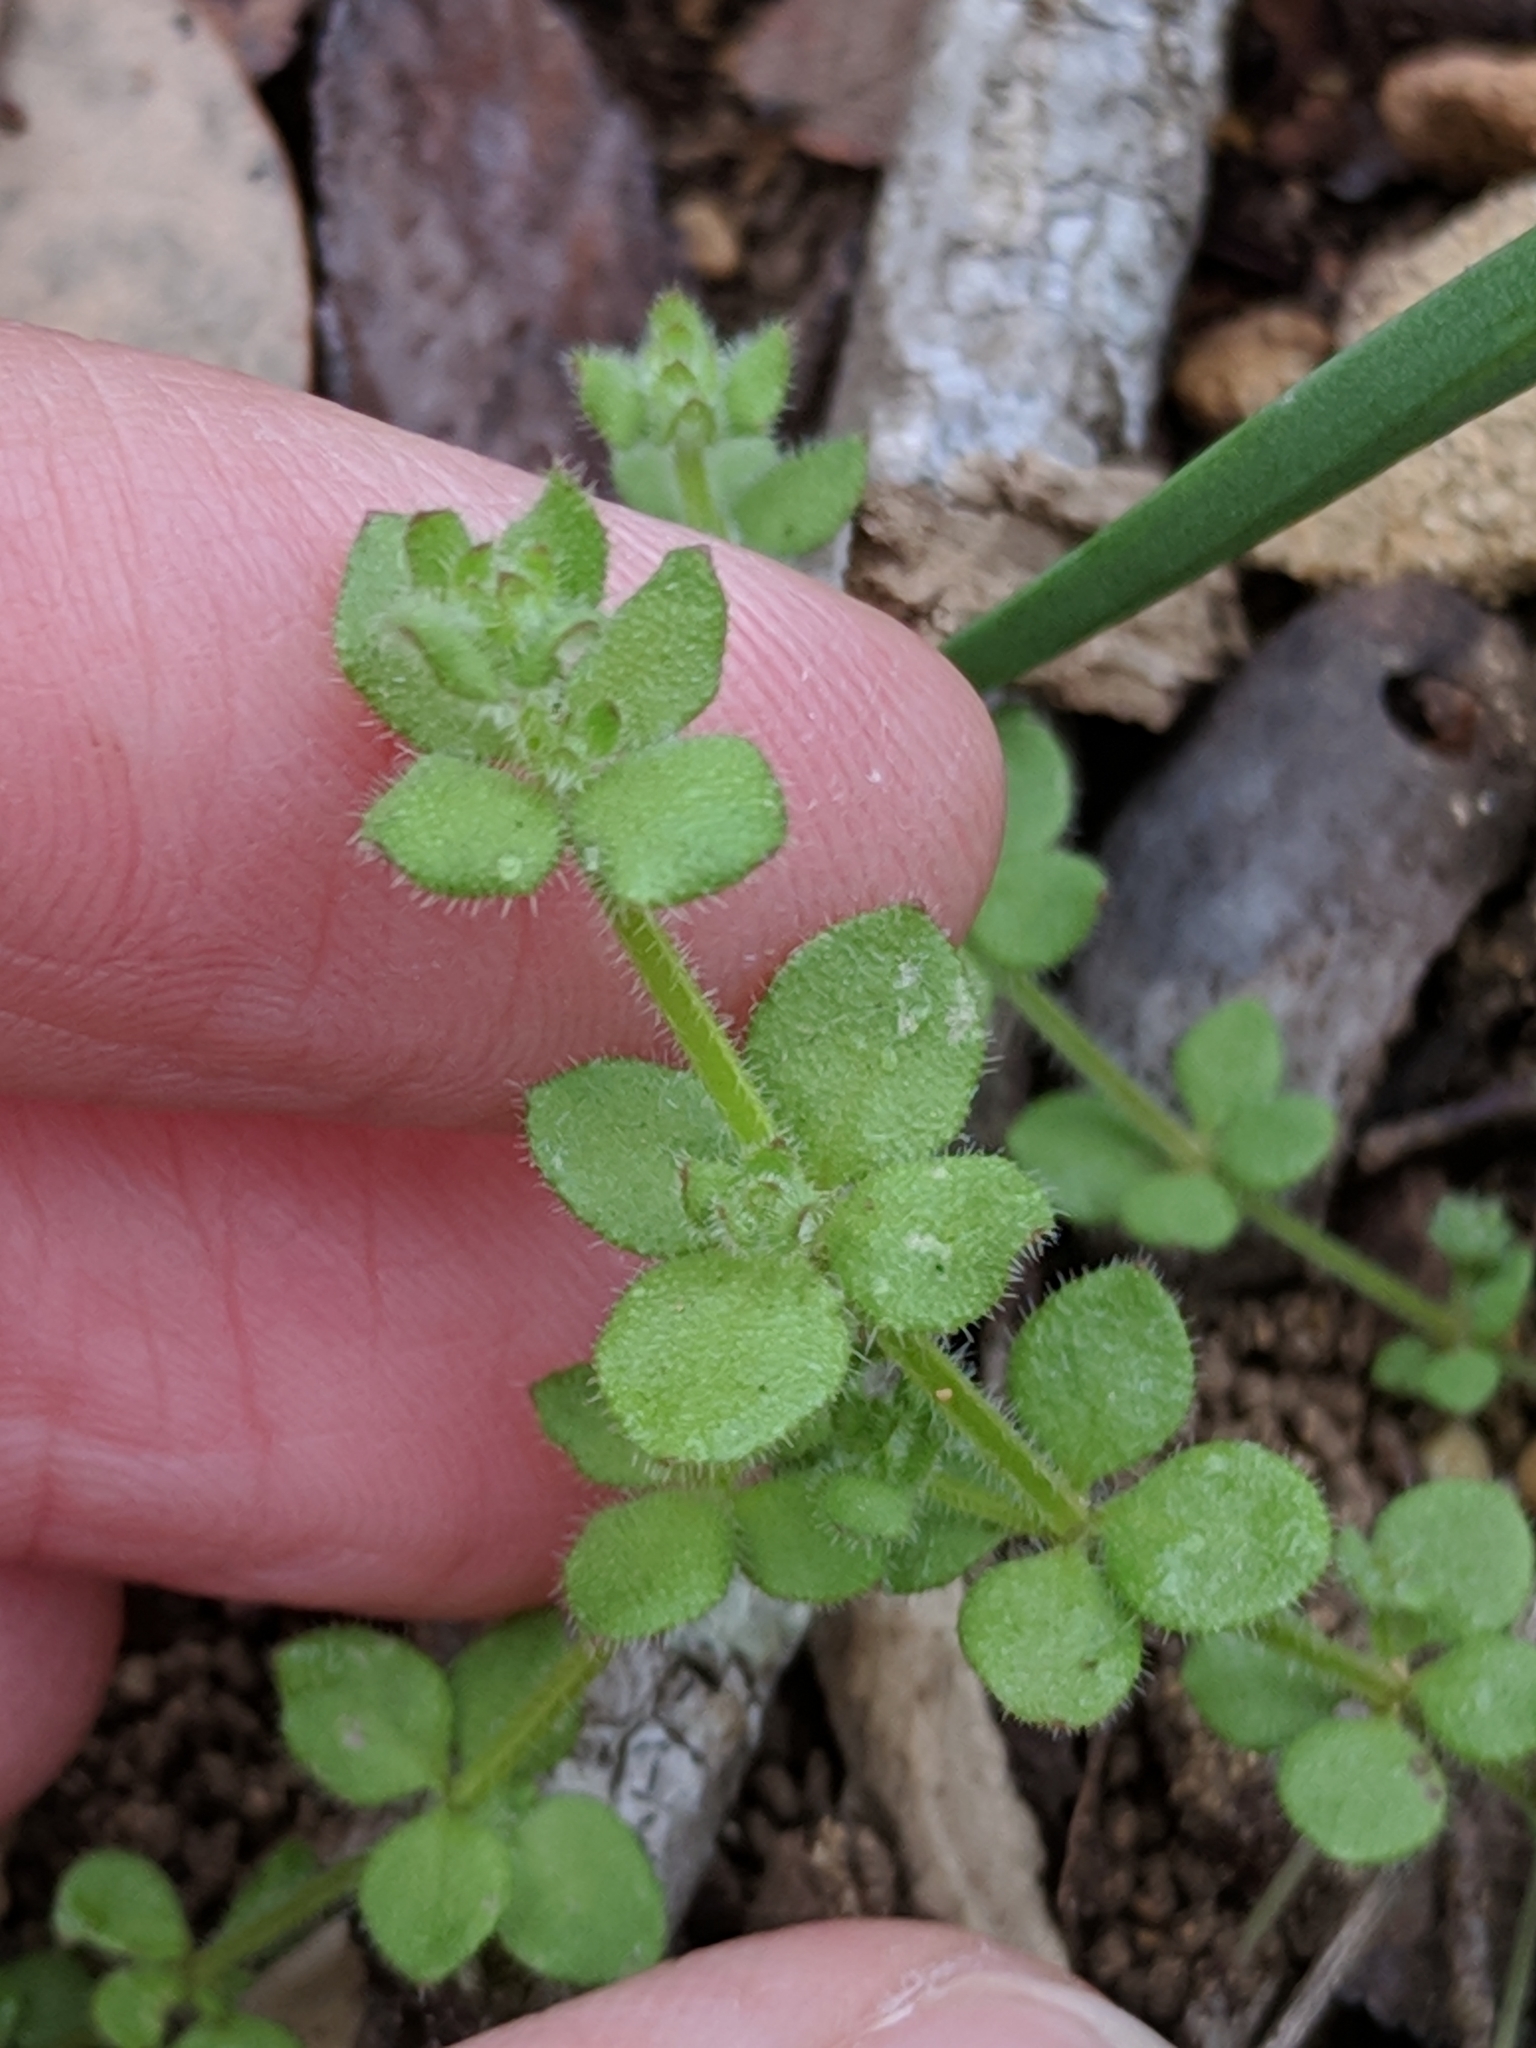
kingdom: Plantae
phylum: Tracheophyta
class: Magnoliopsida
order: Gentianales
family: Rubiaceae
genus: Galium
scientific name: Galium texense
